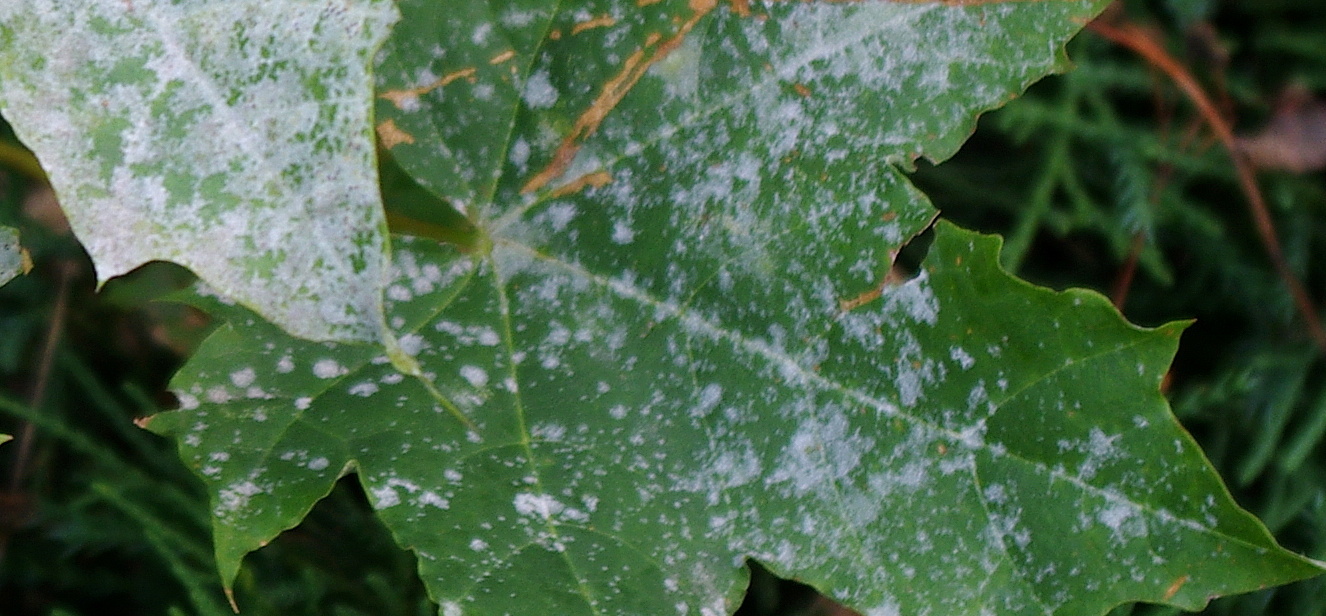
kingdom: Fungi
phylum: Ascomycota
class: Leotiomycetes
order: Helotiales
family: Erysiphaceae
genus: Sawadaea
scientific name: Sawadaea tulasnei
